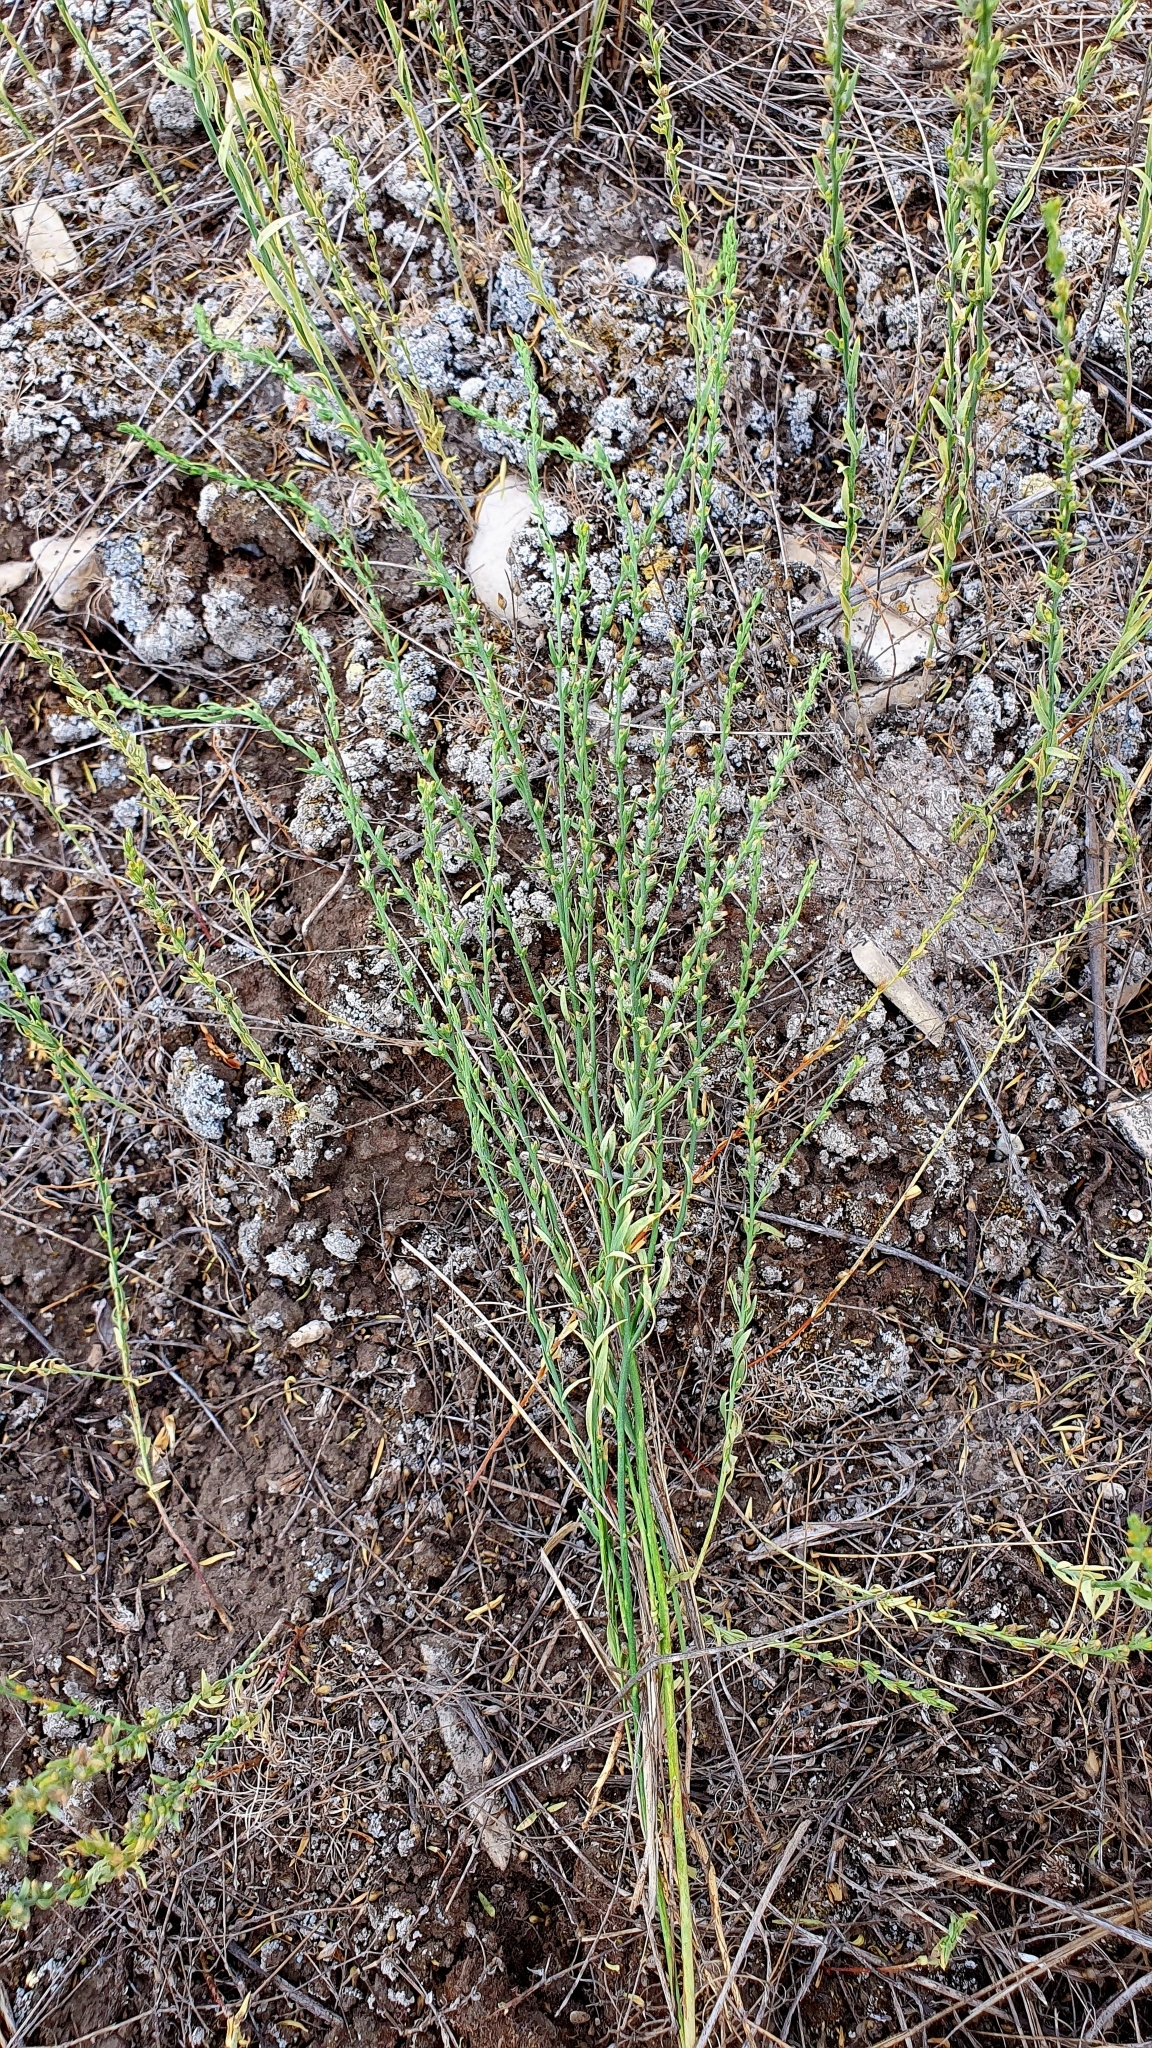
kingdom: Plantae
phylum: Tracheophyta
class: Magnoliopsida
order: Malvales
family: Thymelaeaceae
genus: Thymelaea
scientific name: Thymelaea passerina
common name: Annual thymelaea
